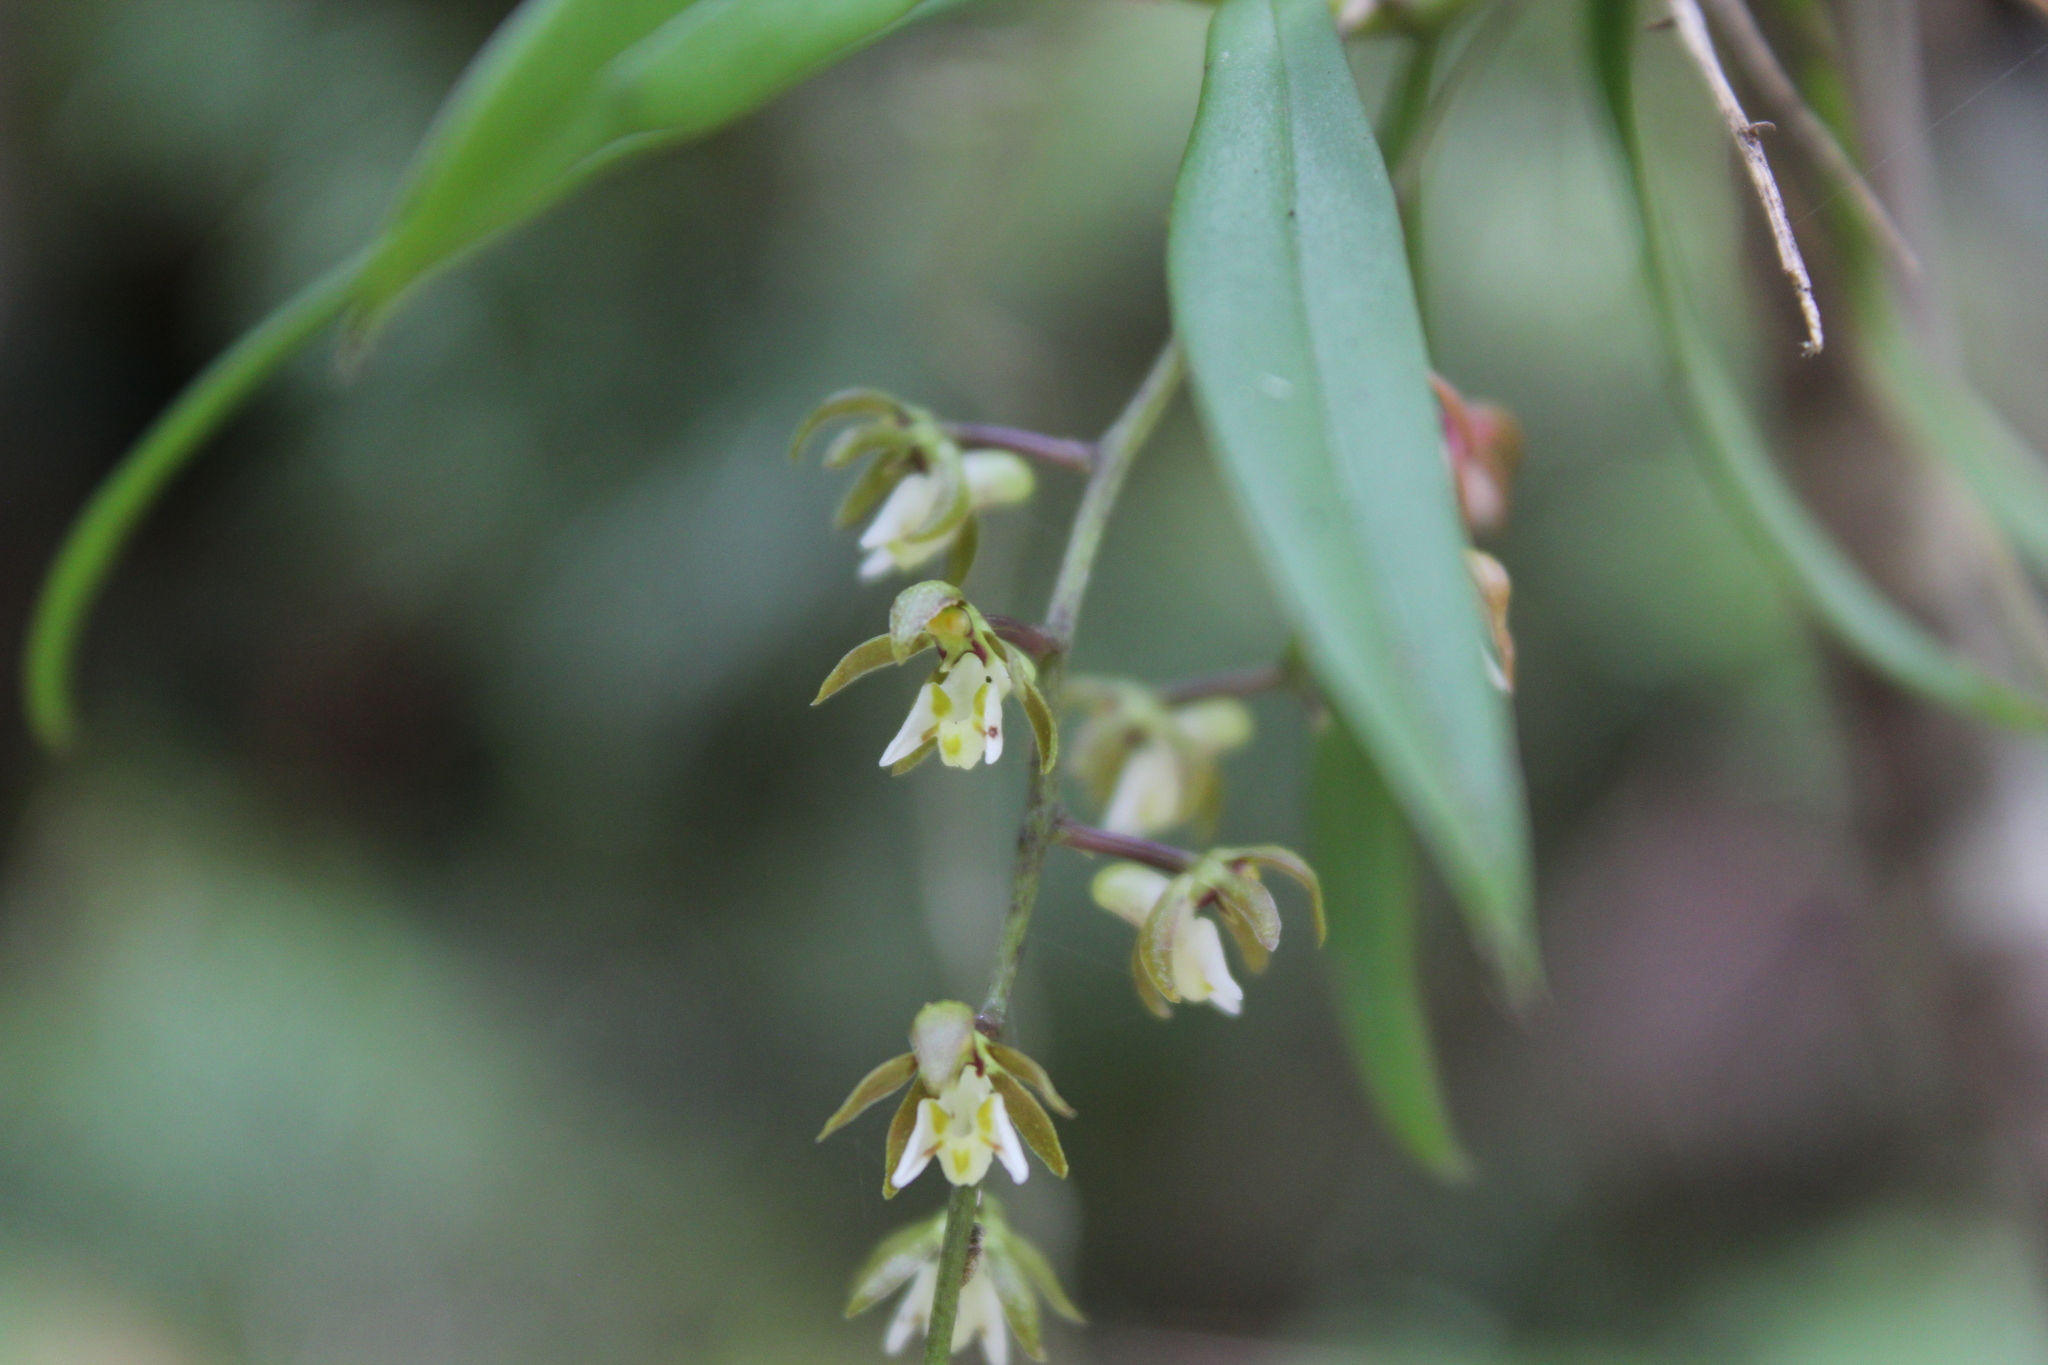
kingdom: Plantae
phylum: Tracheophyta
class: Liliopsida
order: Asparagales
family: Orchidaceae
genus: Plectorrhiza
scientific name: Plectorrhiza tridentata
